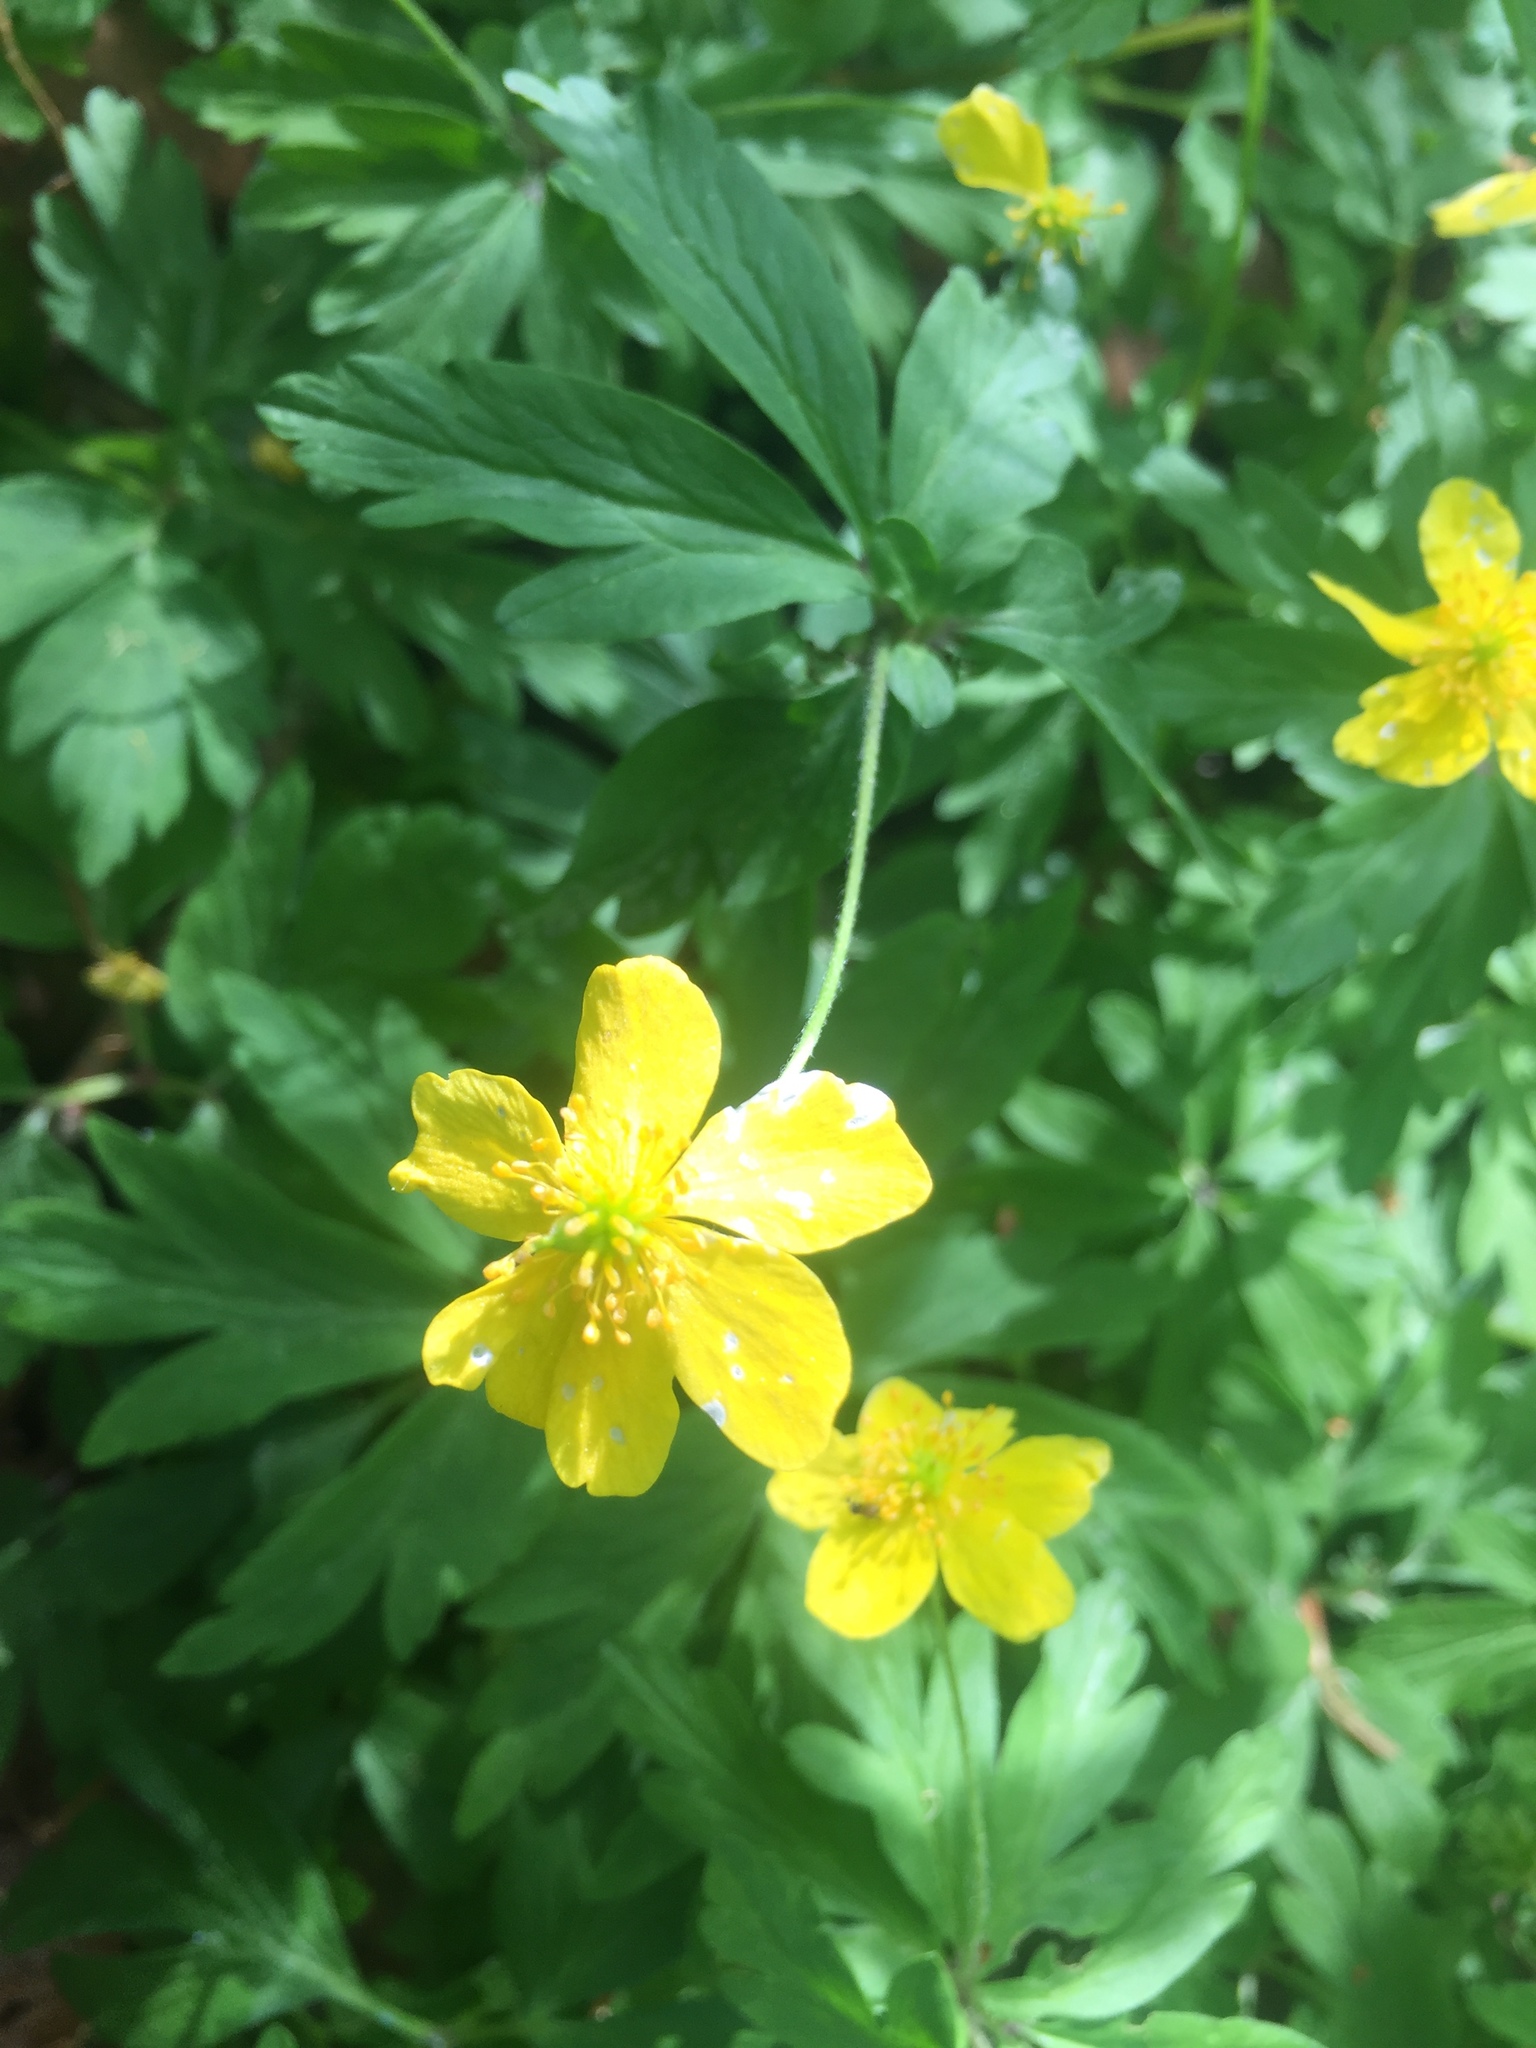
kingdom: Plantae
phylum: Tracheophyta
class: Magnoliopsida
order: Ranunculales
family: Ranunculaceae
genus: Anemone
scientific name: Anemone ranunculoides
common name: Yellow anemone
